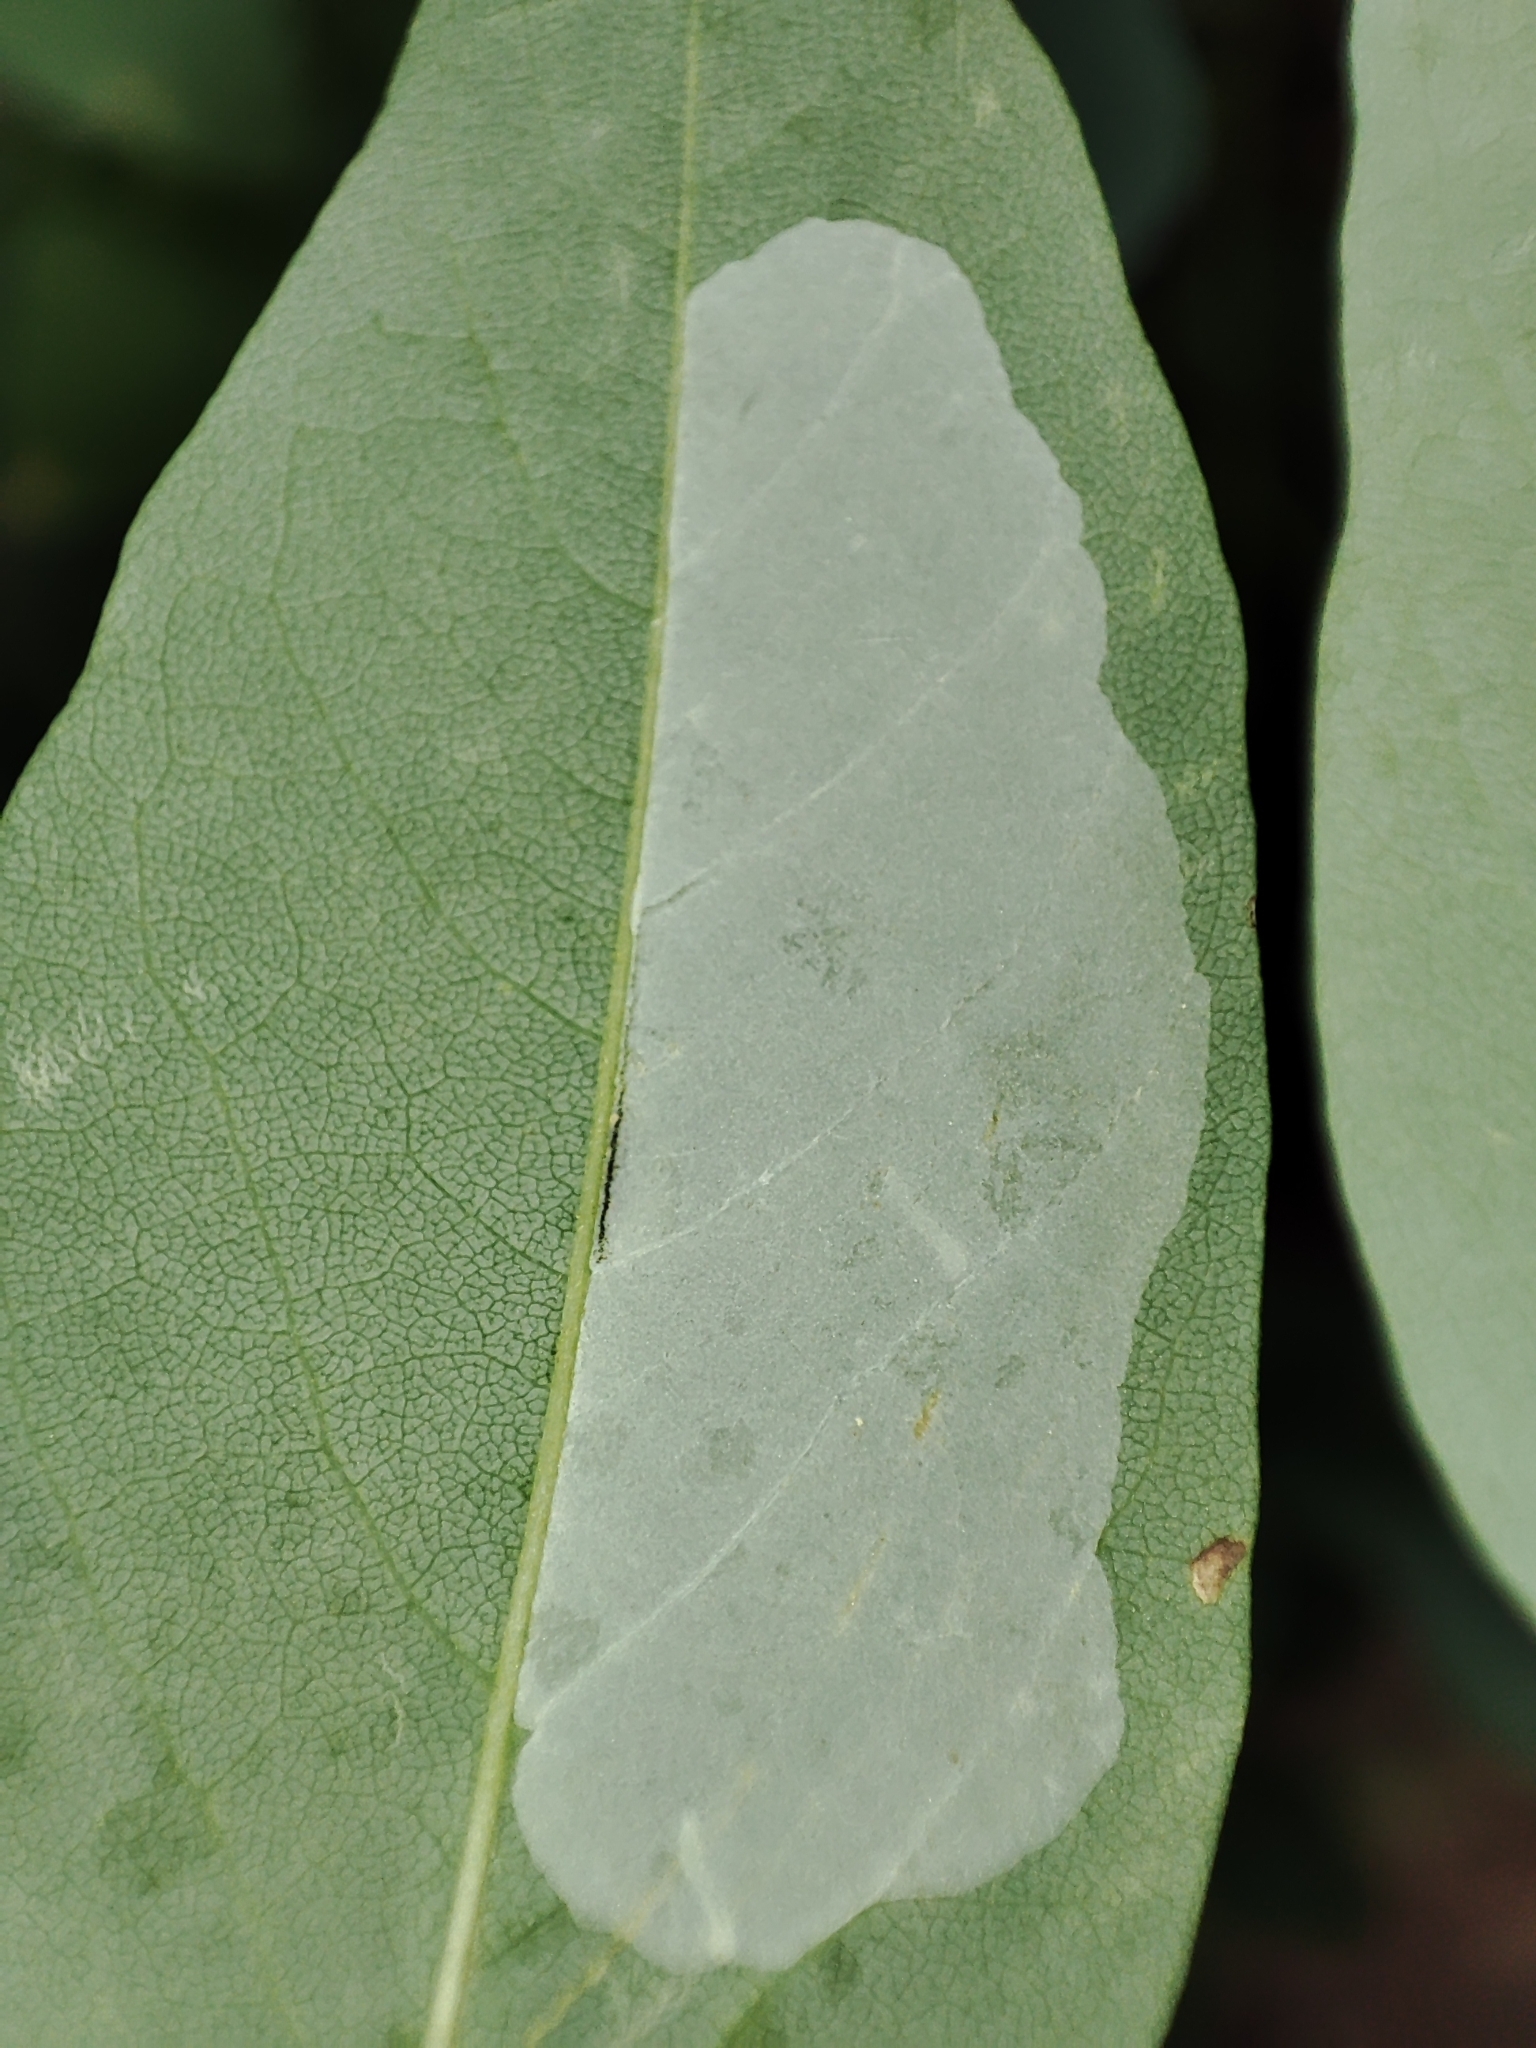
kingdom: Animalia
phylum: Arthropoda
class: Insecta
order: Lepidoptera
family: Gracillariidae
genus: Macrosaccus
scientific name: Macrosaccus robiniella
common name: Leaf blotch miner moth
